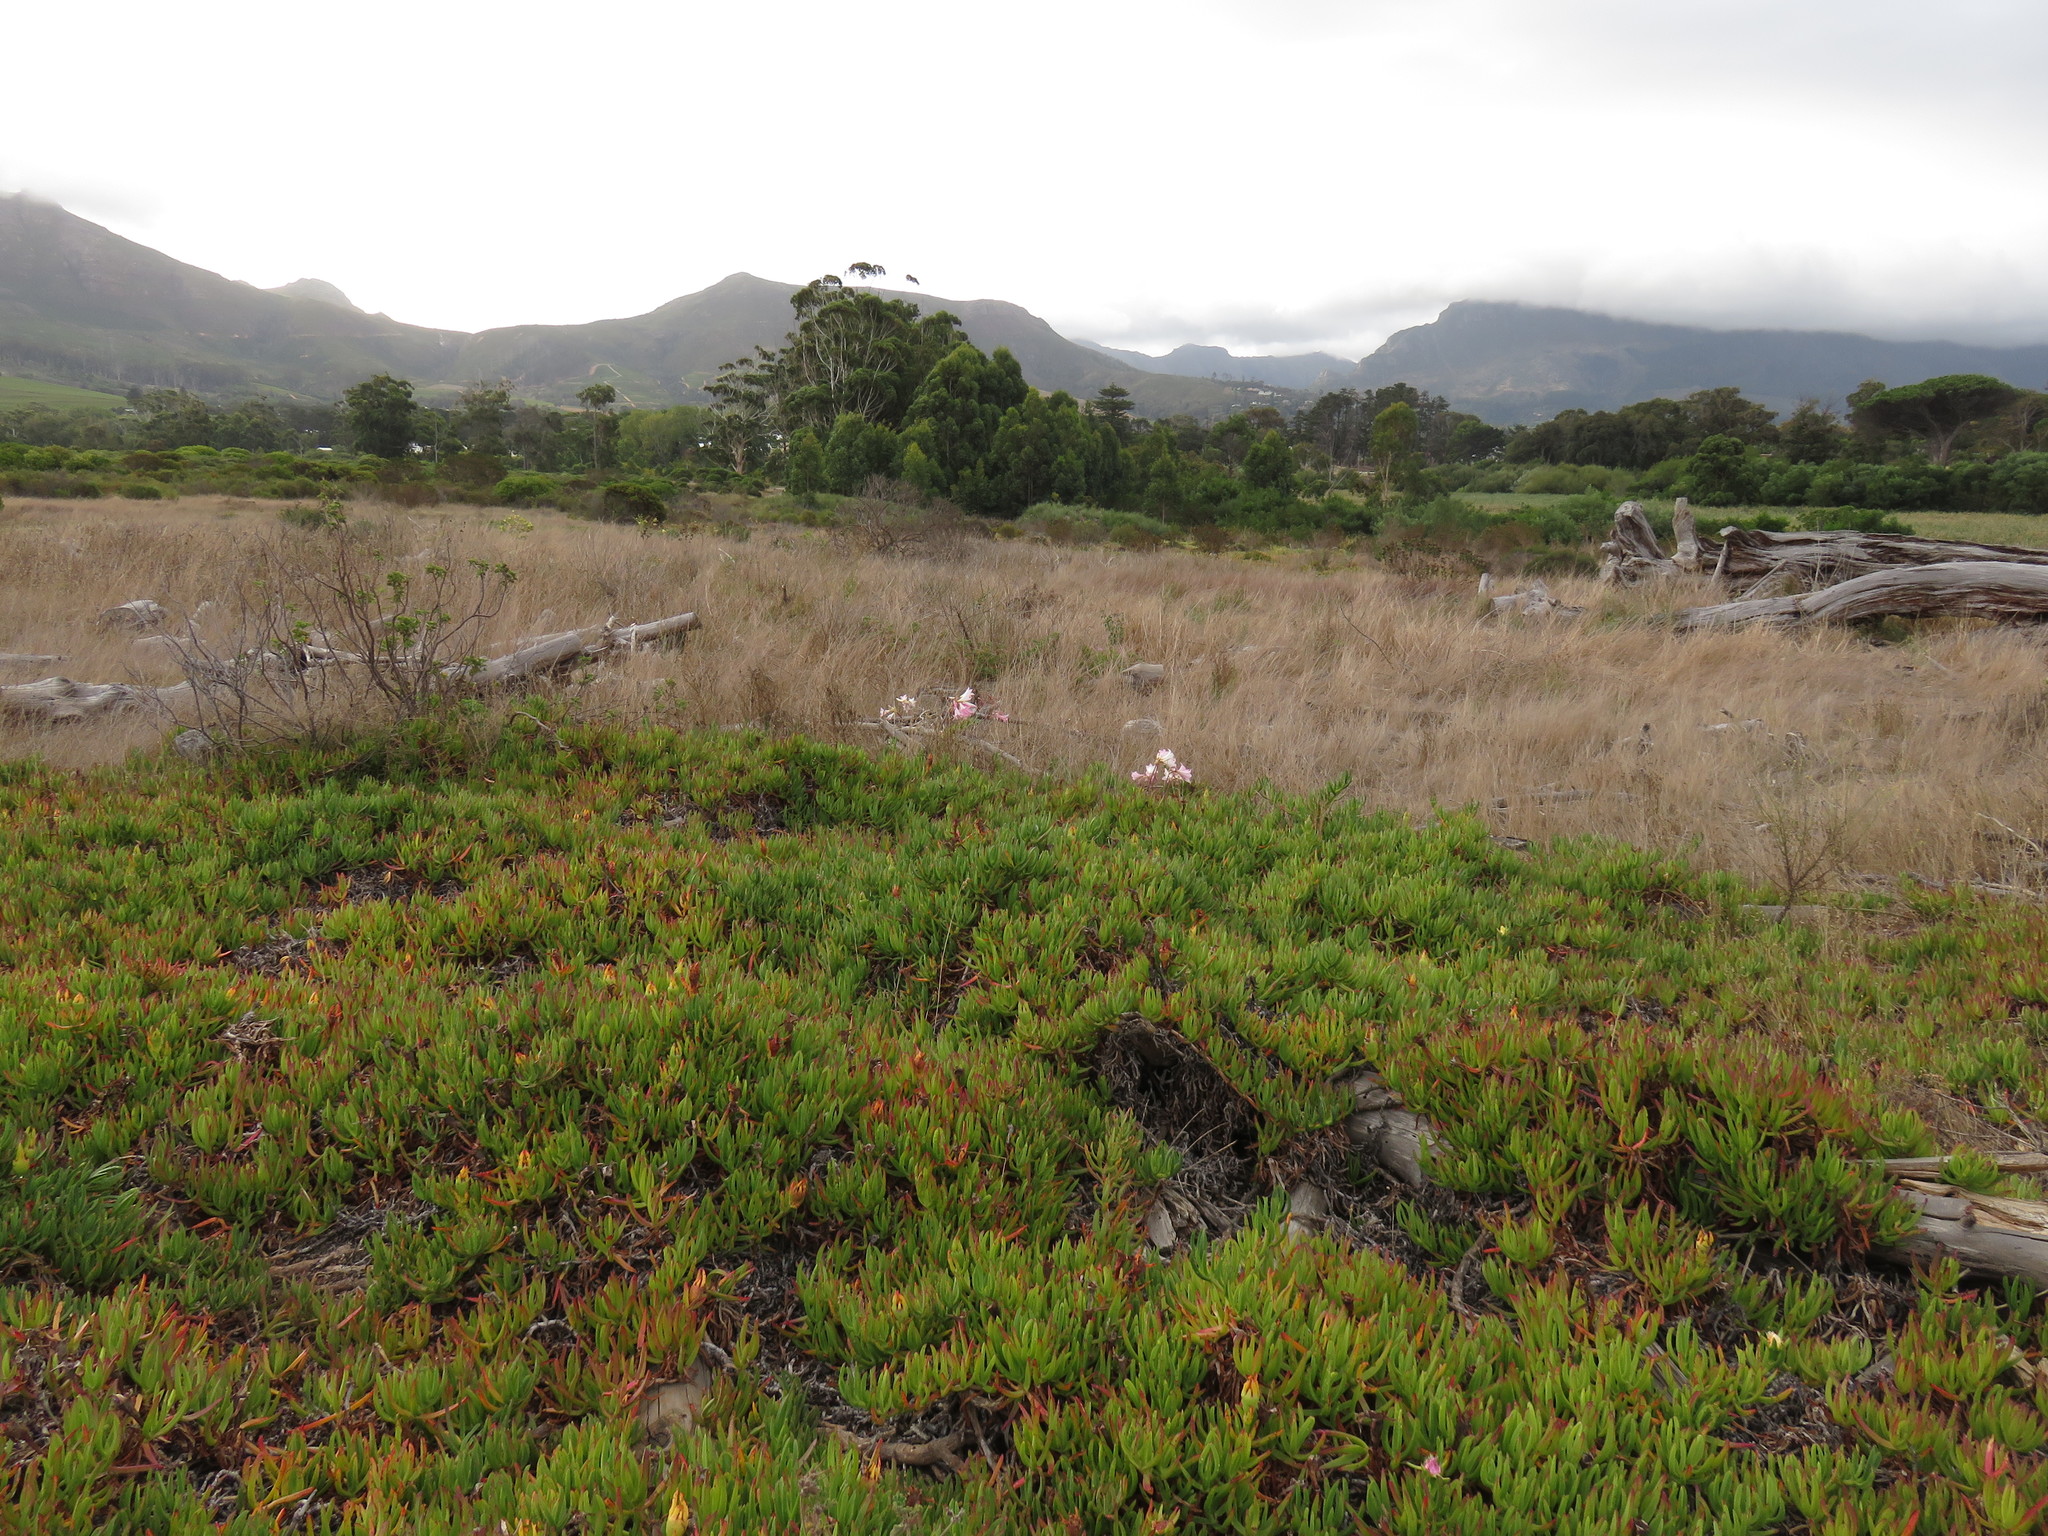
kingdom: Plantae
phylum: Tracheophyta
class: Liliopsida
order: Asparagales
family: Amaryllidaceae
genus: Amaryllis
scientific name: Amaryllis belladonna
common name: Jersey lily
